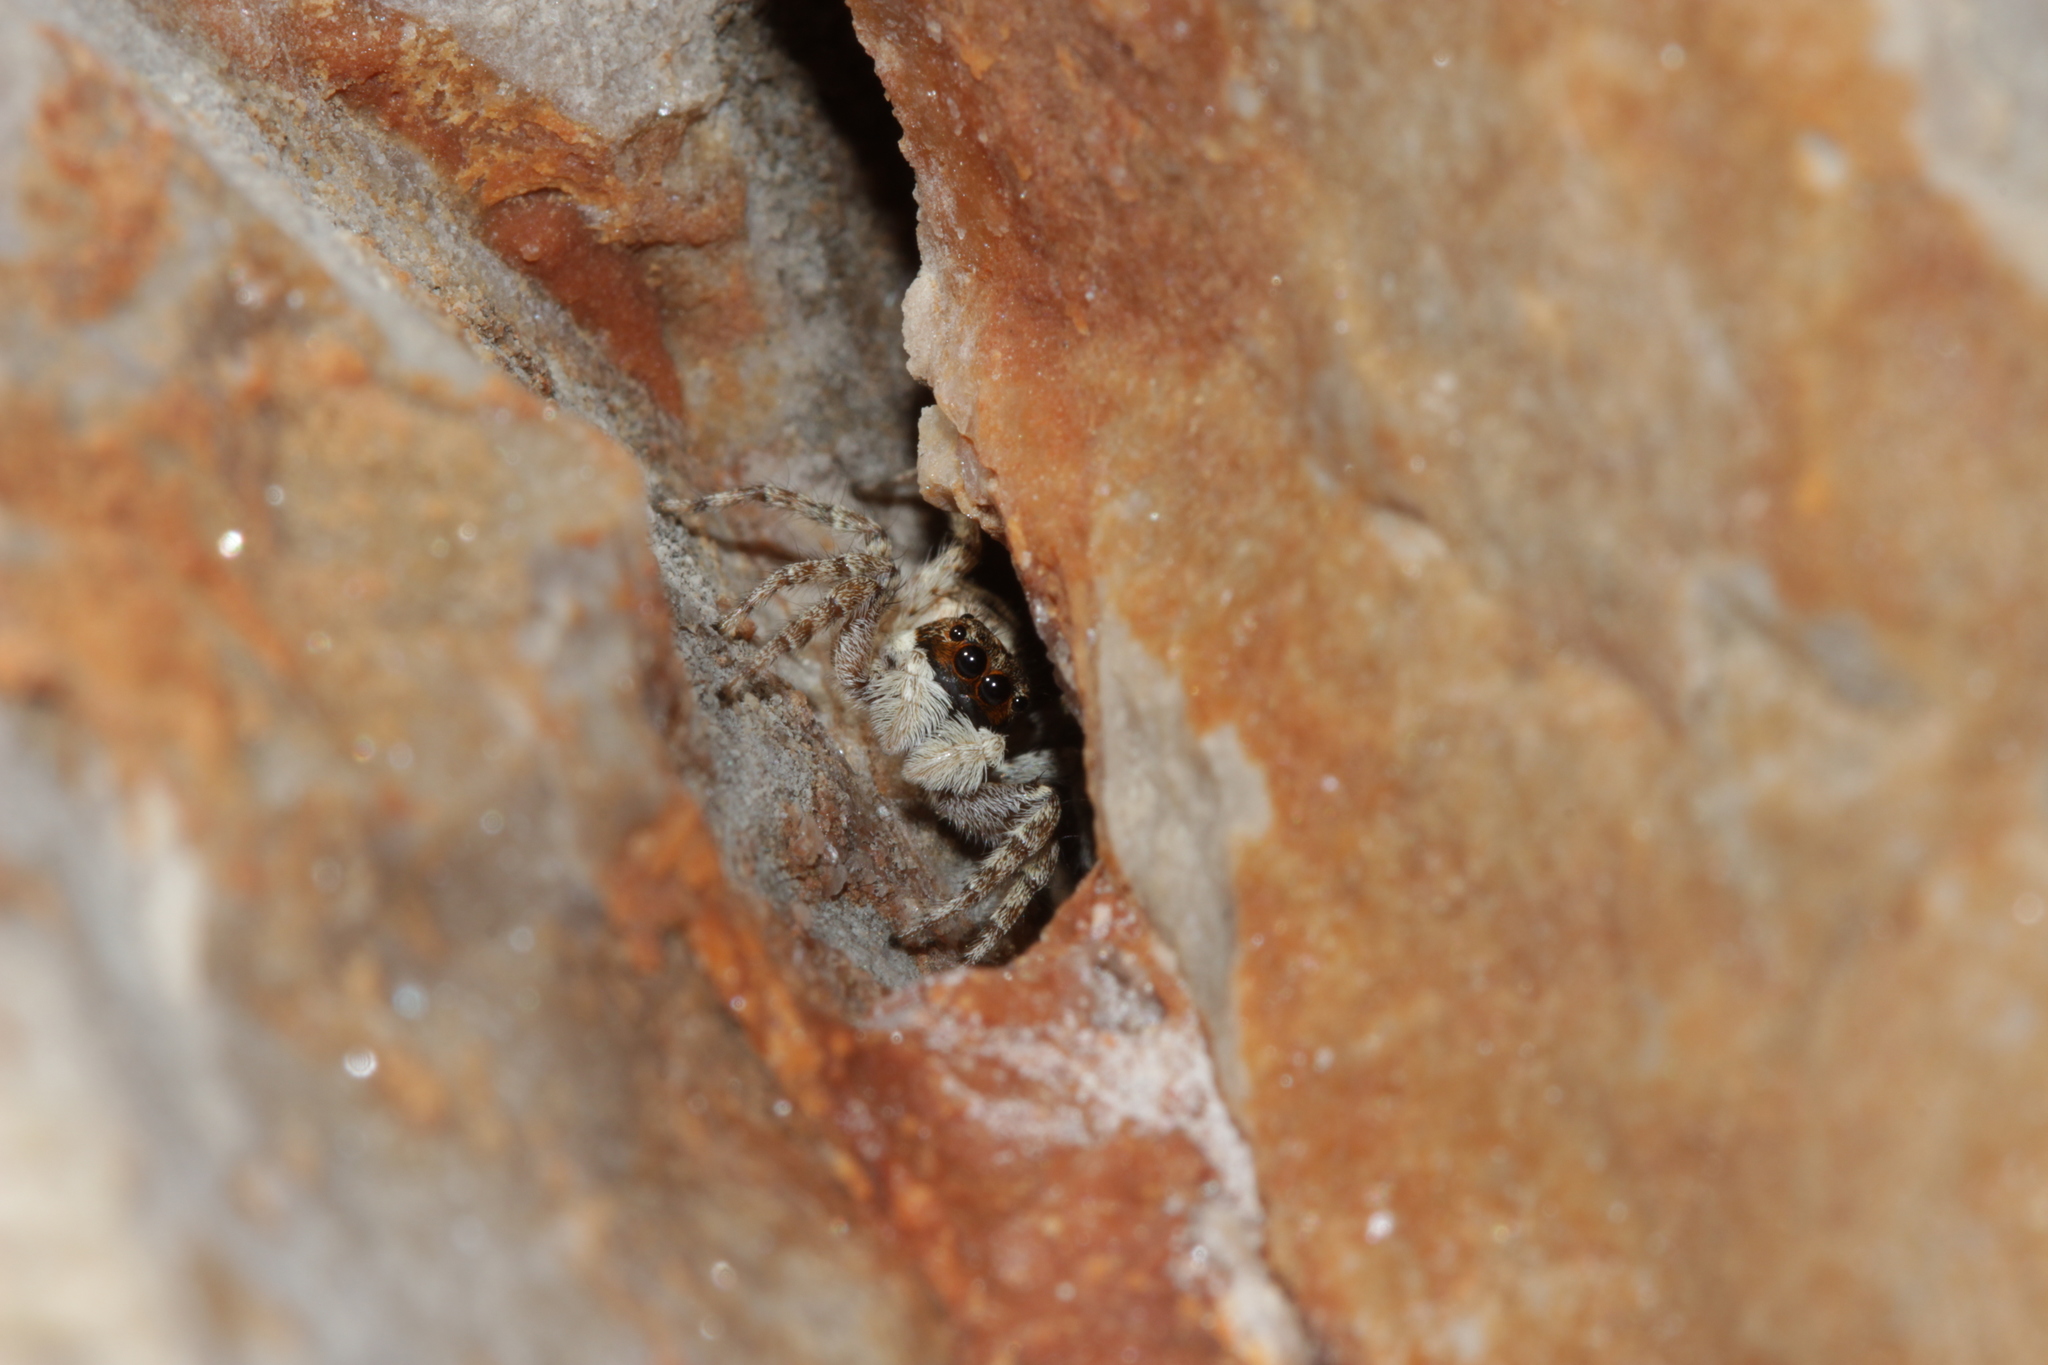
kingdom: Animalia
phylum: Arthropoda
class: Arachnida
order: Araneae
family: Salticidae
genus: Menemerus
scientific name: Menemerus semilimbatus
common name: Jumping spider
